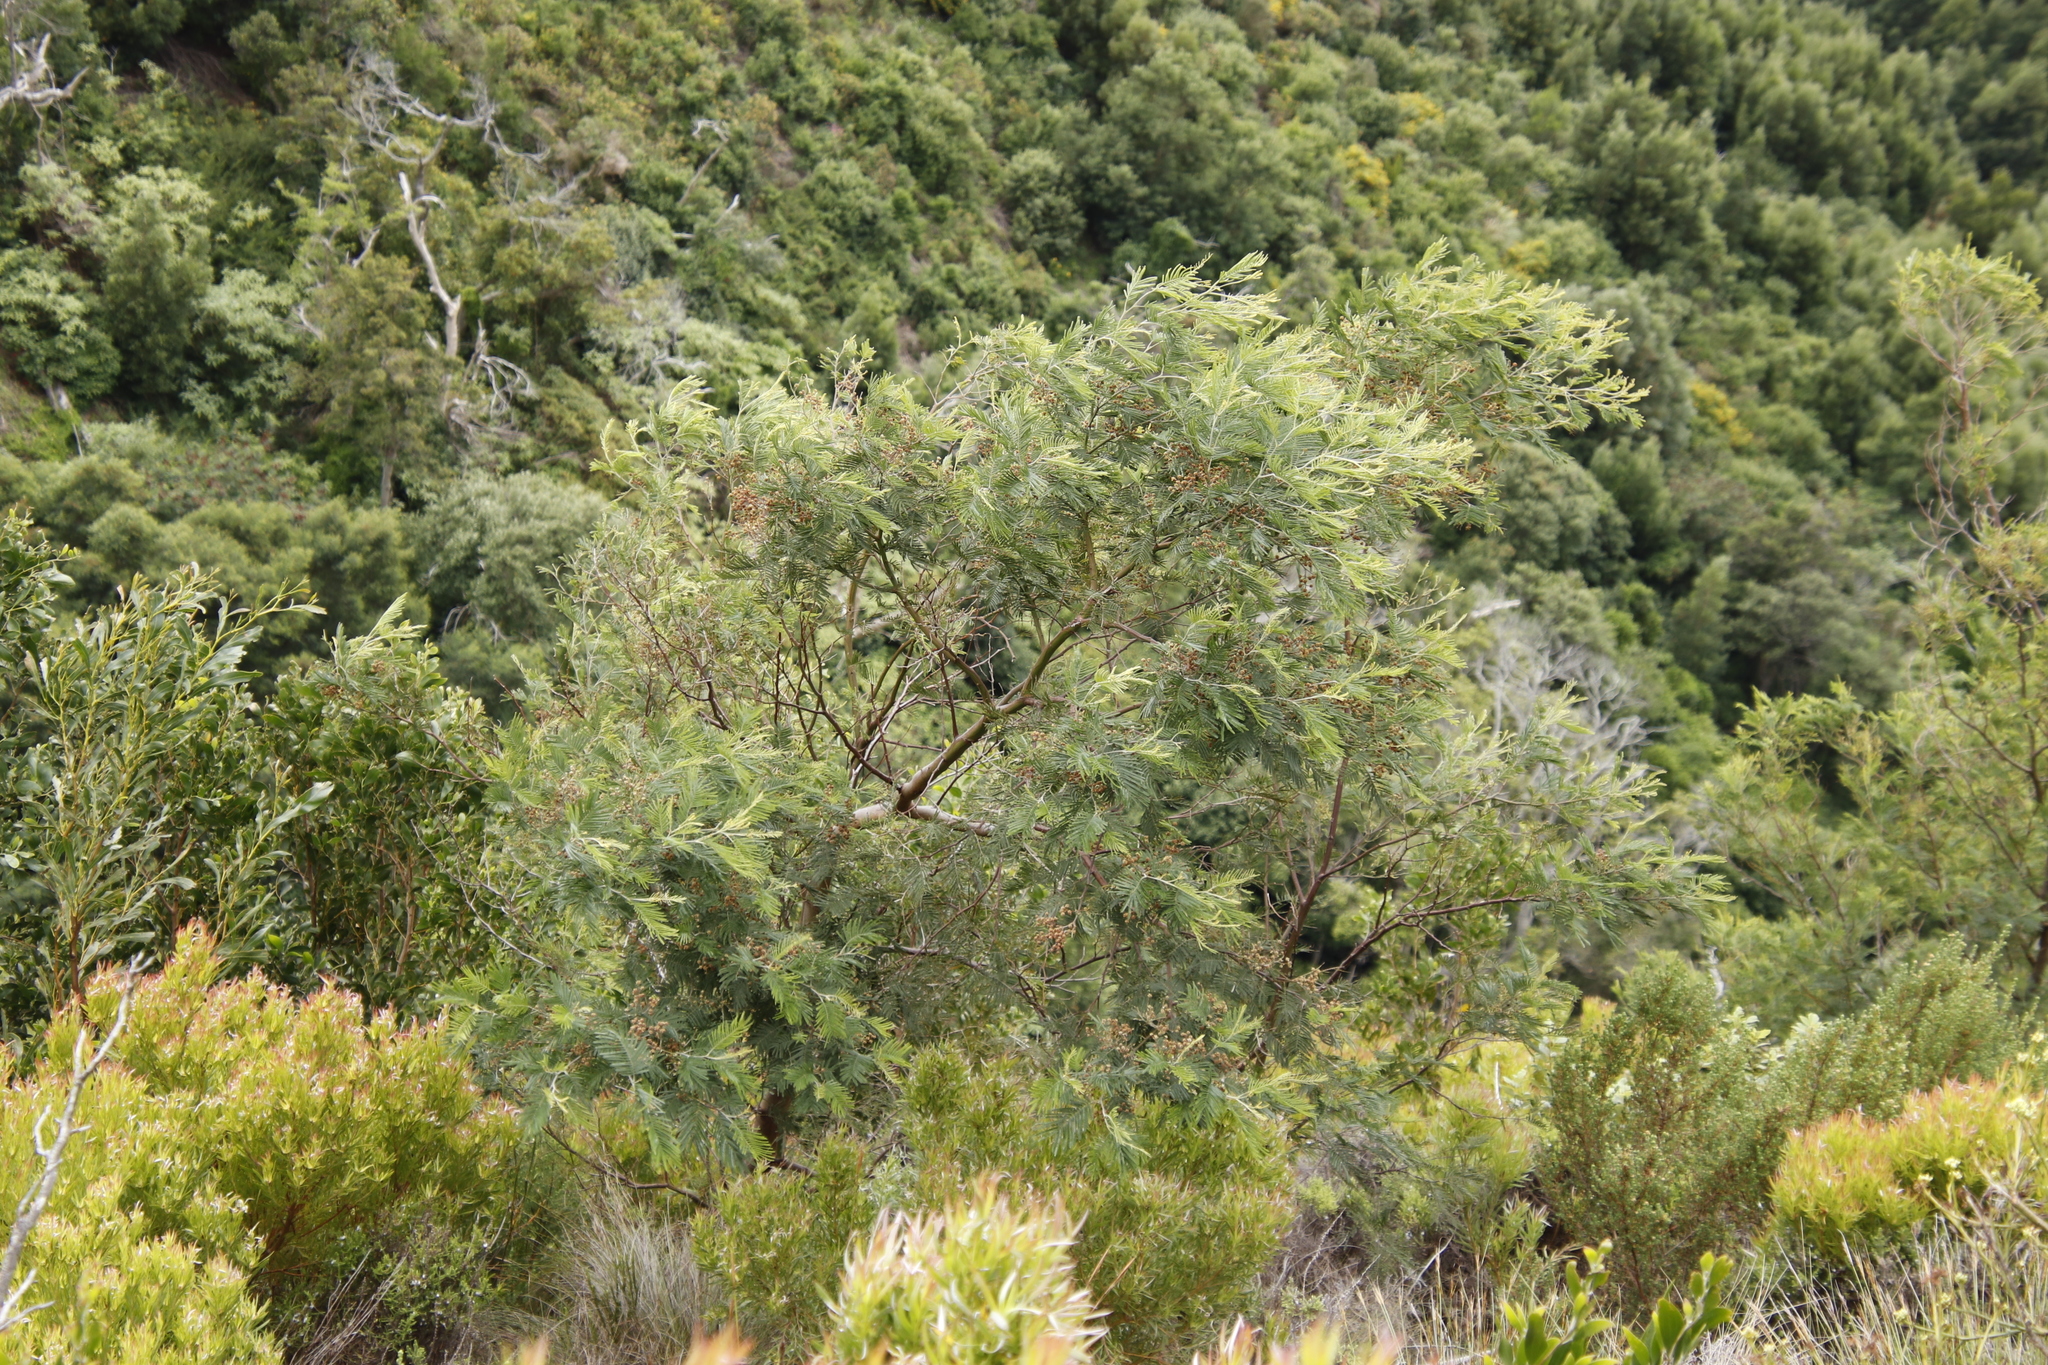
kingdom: Plantae
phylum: Tracheophyta
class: Magnoliopsida
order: Fabales
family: Fabaceae
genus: Acacia
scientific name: Acacia mearnsii
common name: Black wattle
